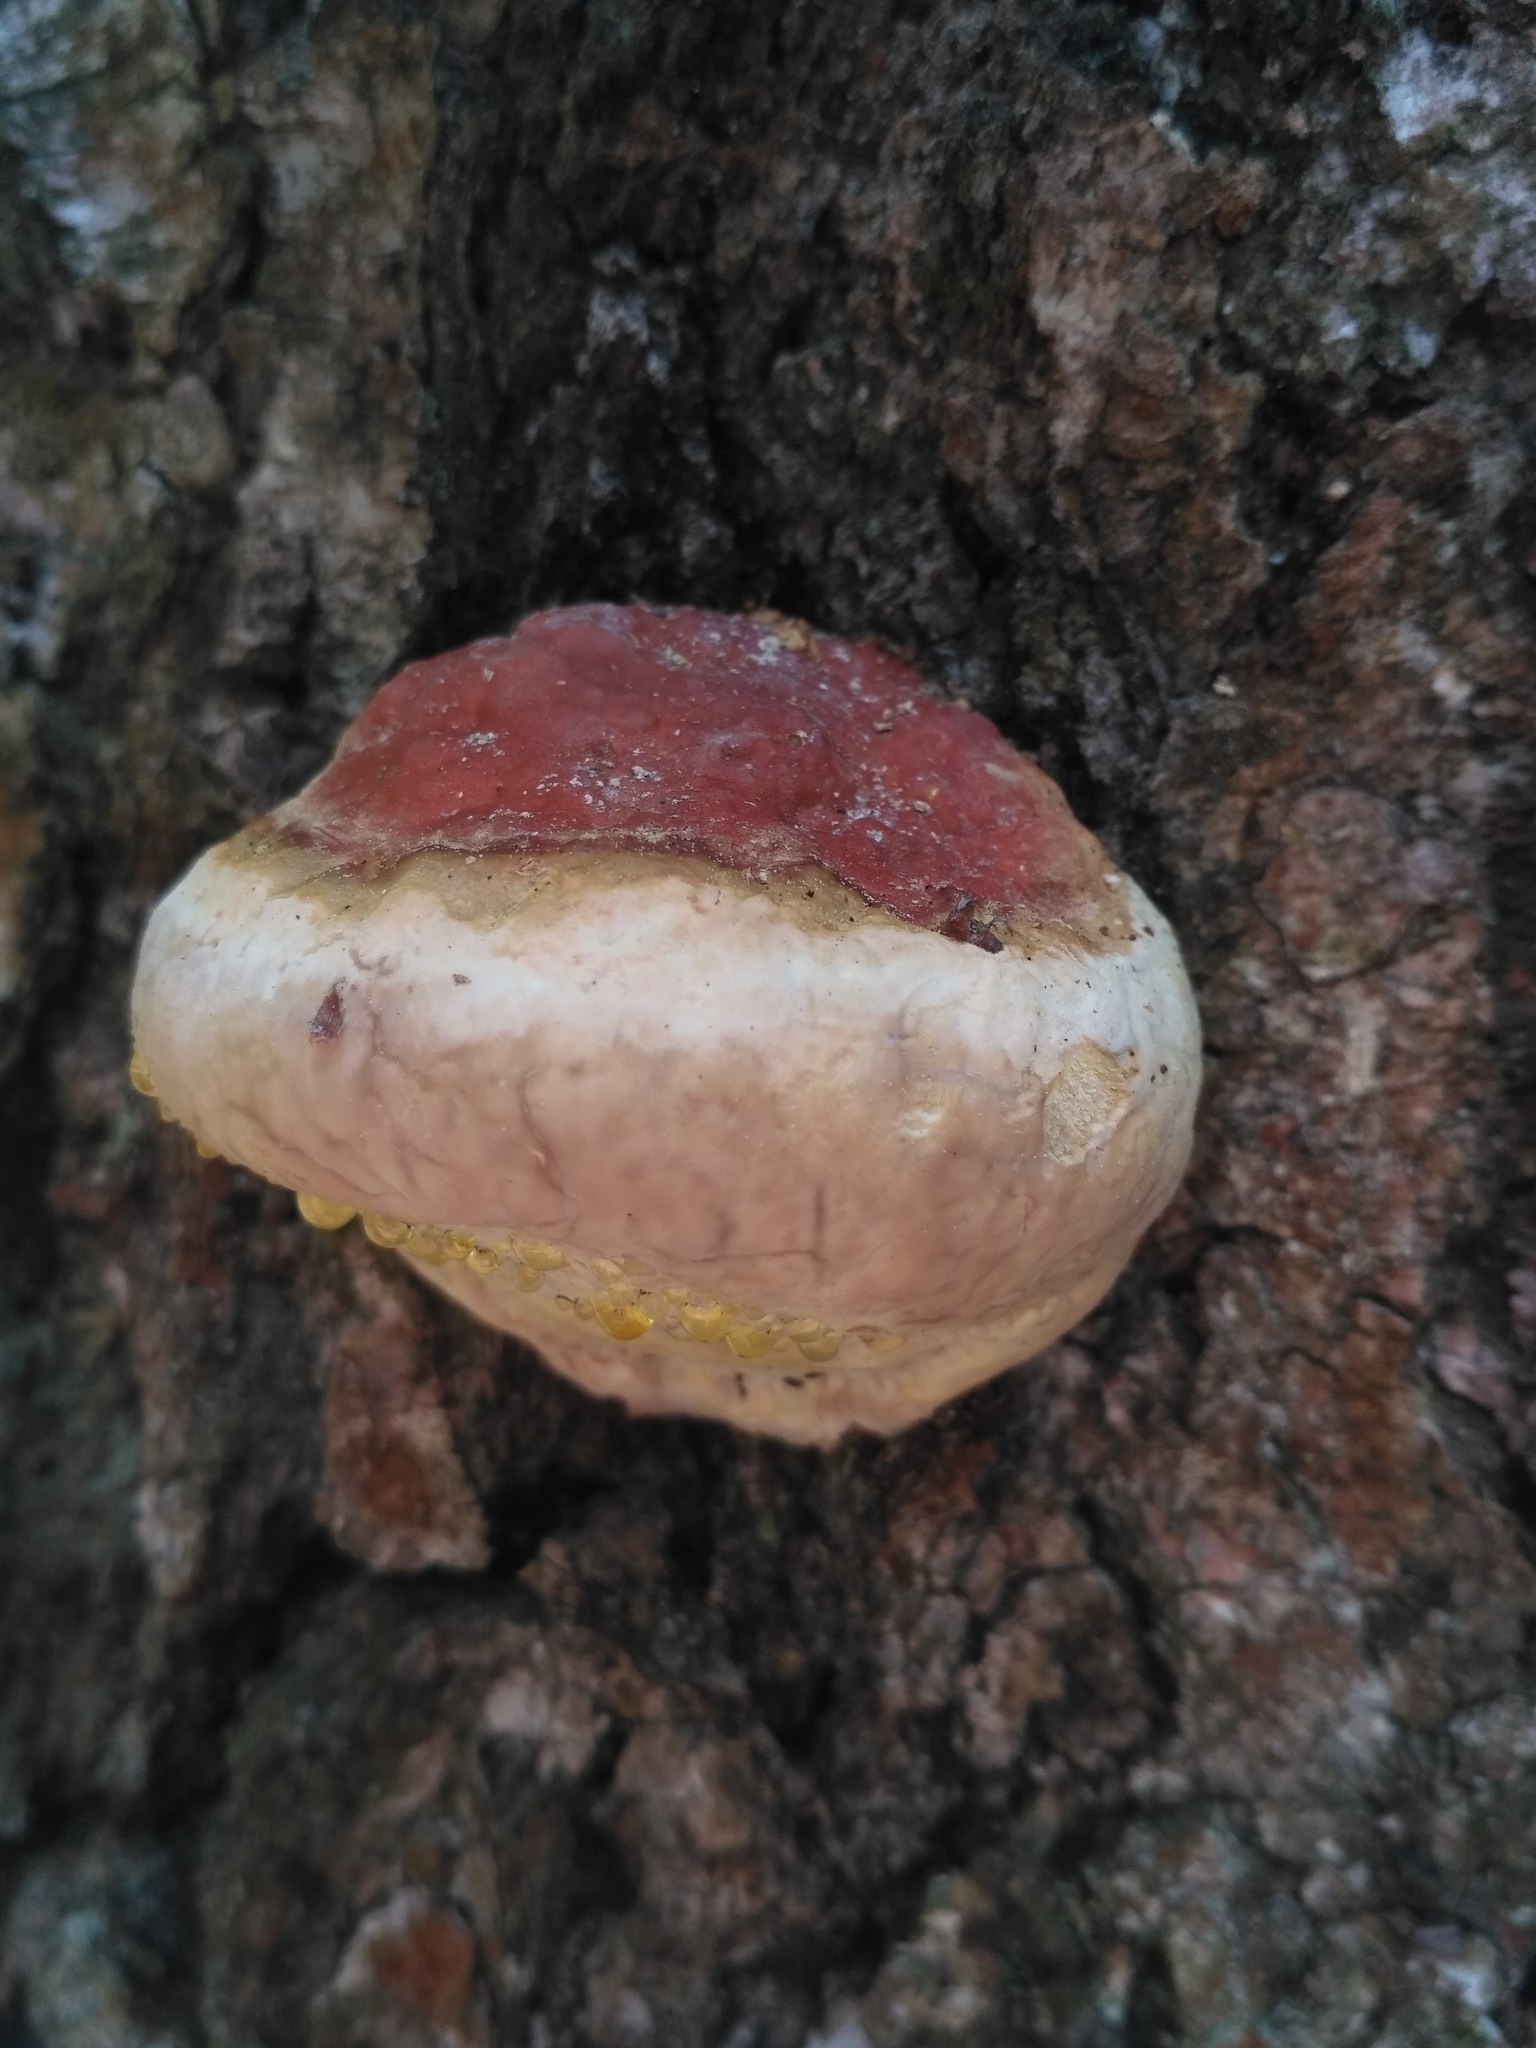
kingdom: Fungi
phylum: Basidiomycota
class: Agaricomycetes
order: Polyporales
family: Fomitopsidaceae
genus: Fomitopsis
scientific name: Fomitopsis pinicola
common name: Red-belted bracket
